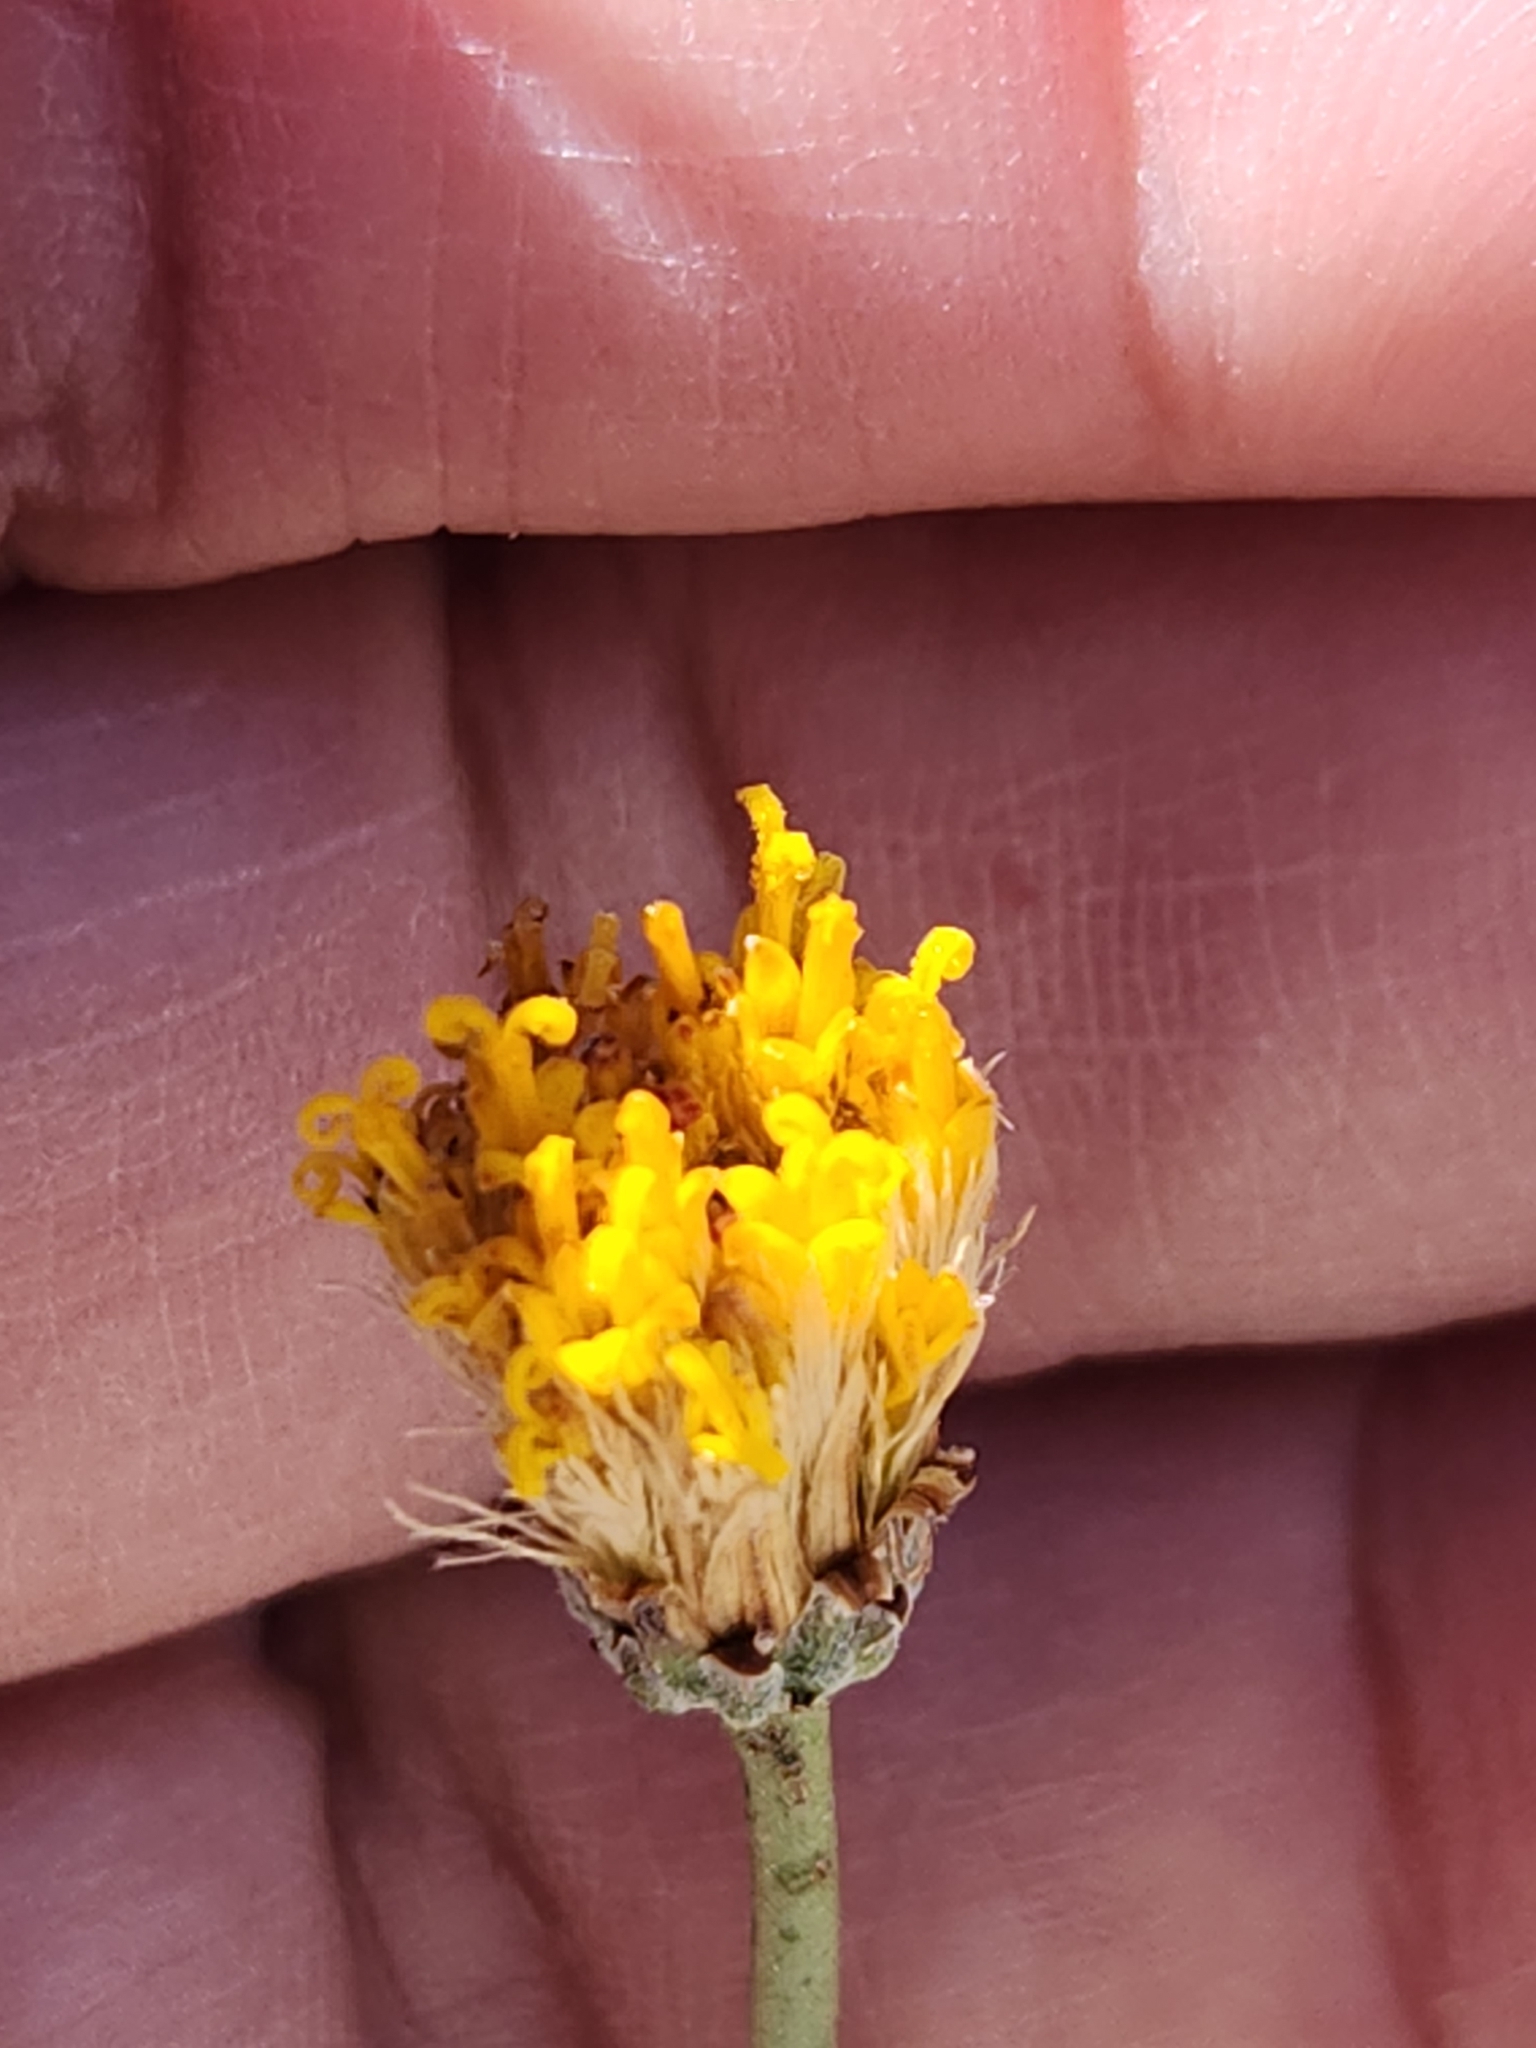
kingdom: Plantae
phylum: Tracheophyta
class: Magnoliopsida
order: Asterales
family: Asteraceae
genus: Bebbia
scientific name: Bebbia juncea
